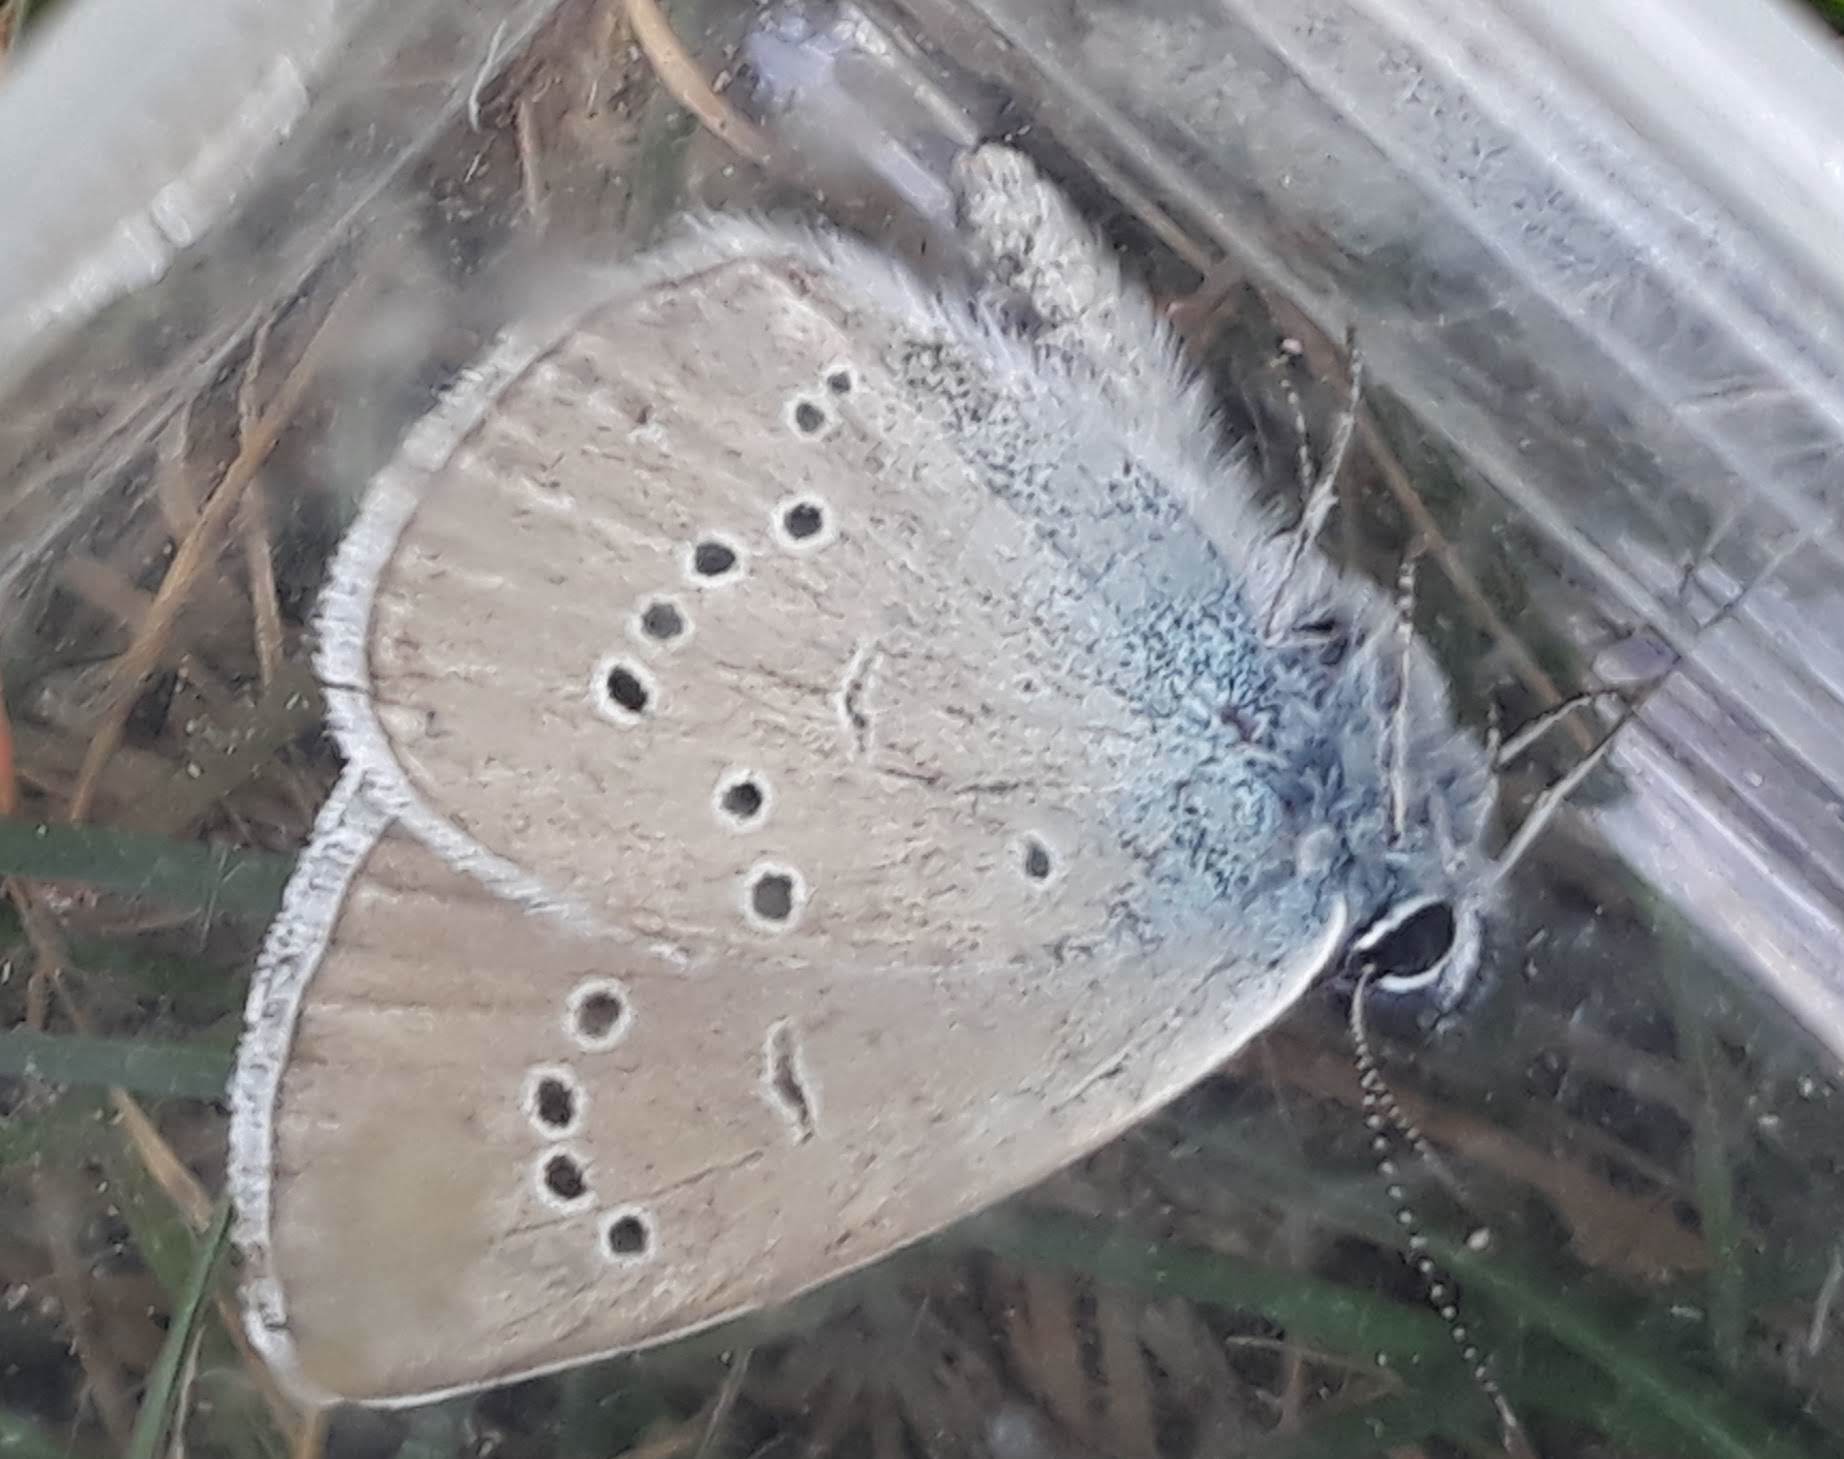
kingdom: Animalia
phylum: Arthropoda
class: Insecta
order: Lepidoptera
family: Lycaenidae
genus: Cyaniris
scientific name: Cyaniris semiargus
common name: Mazarine blue
